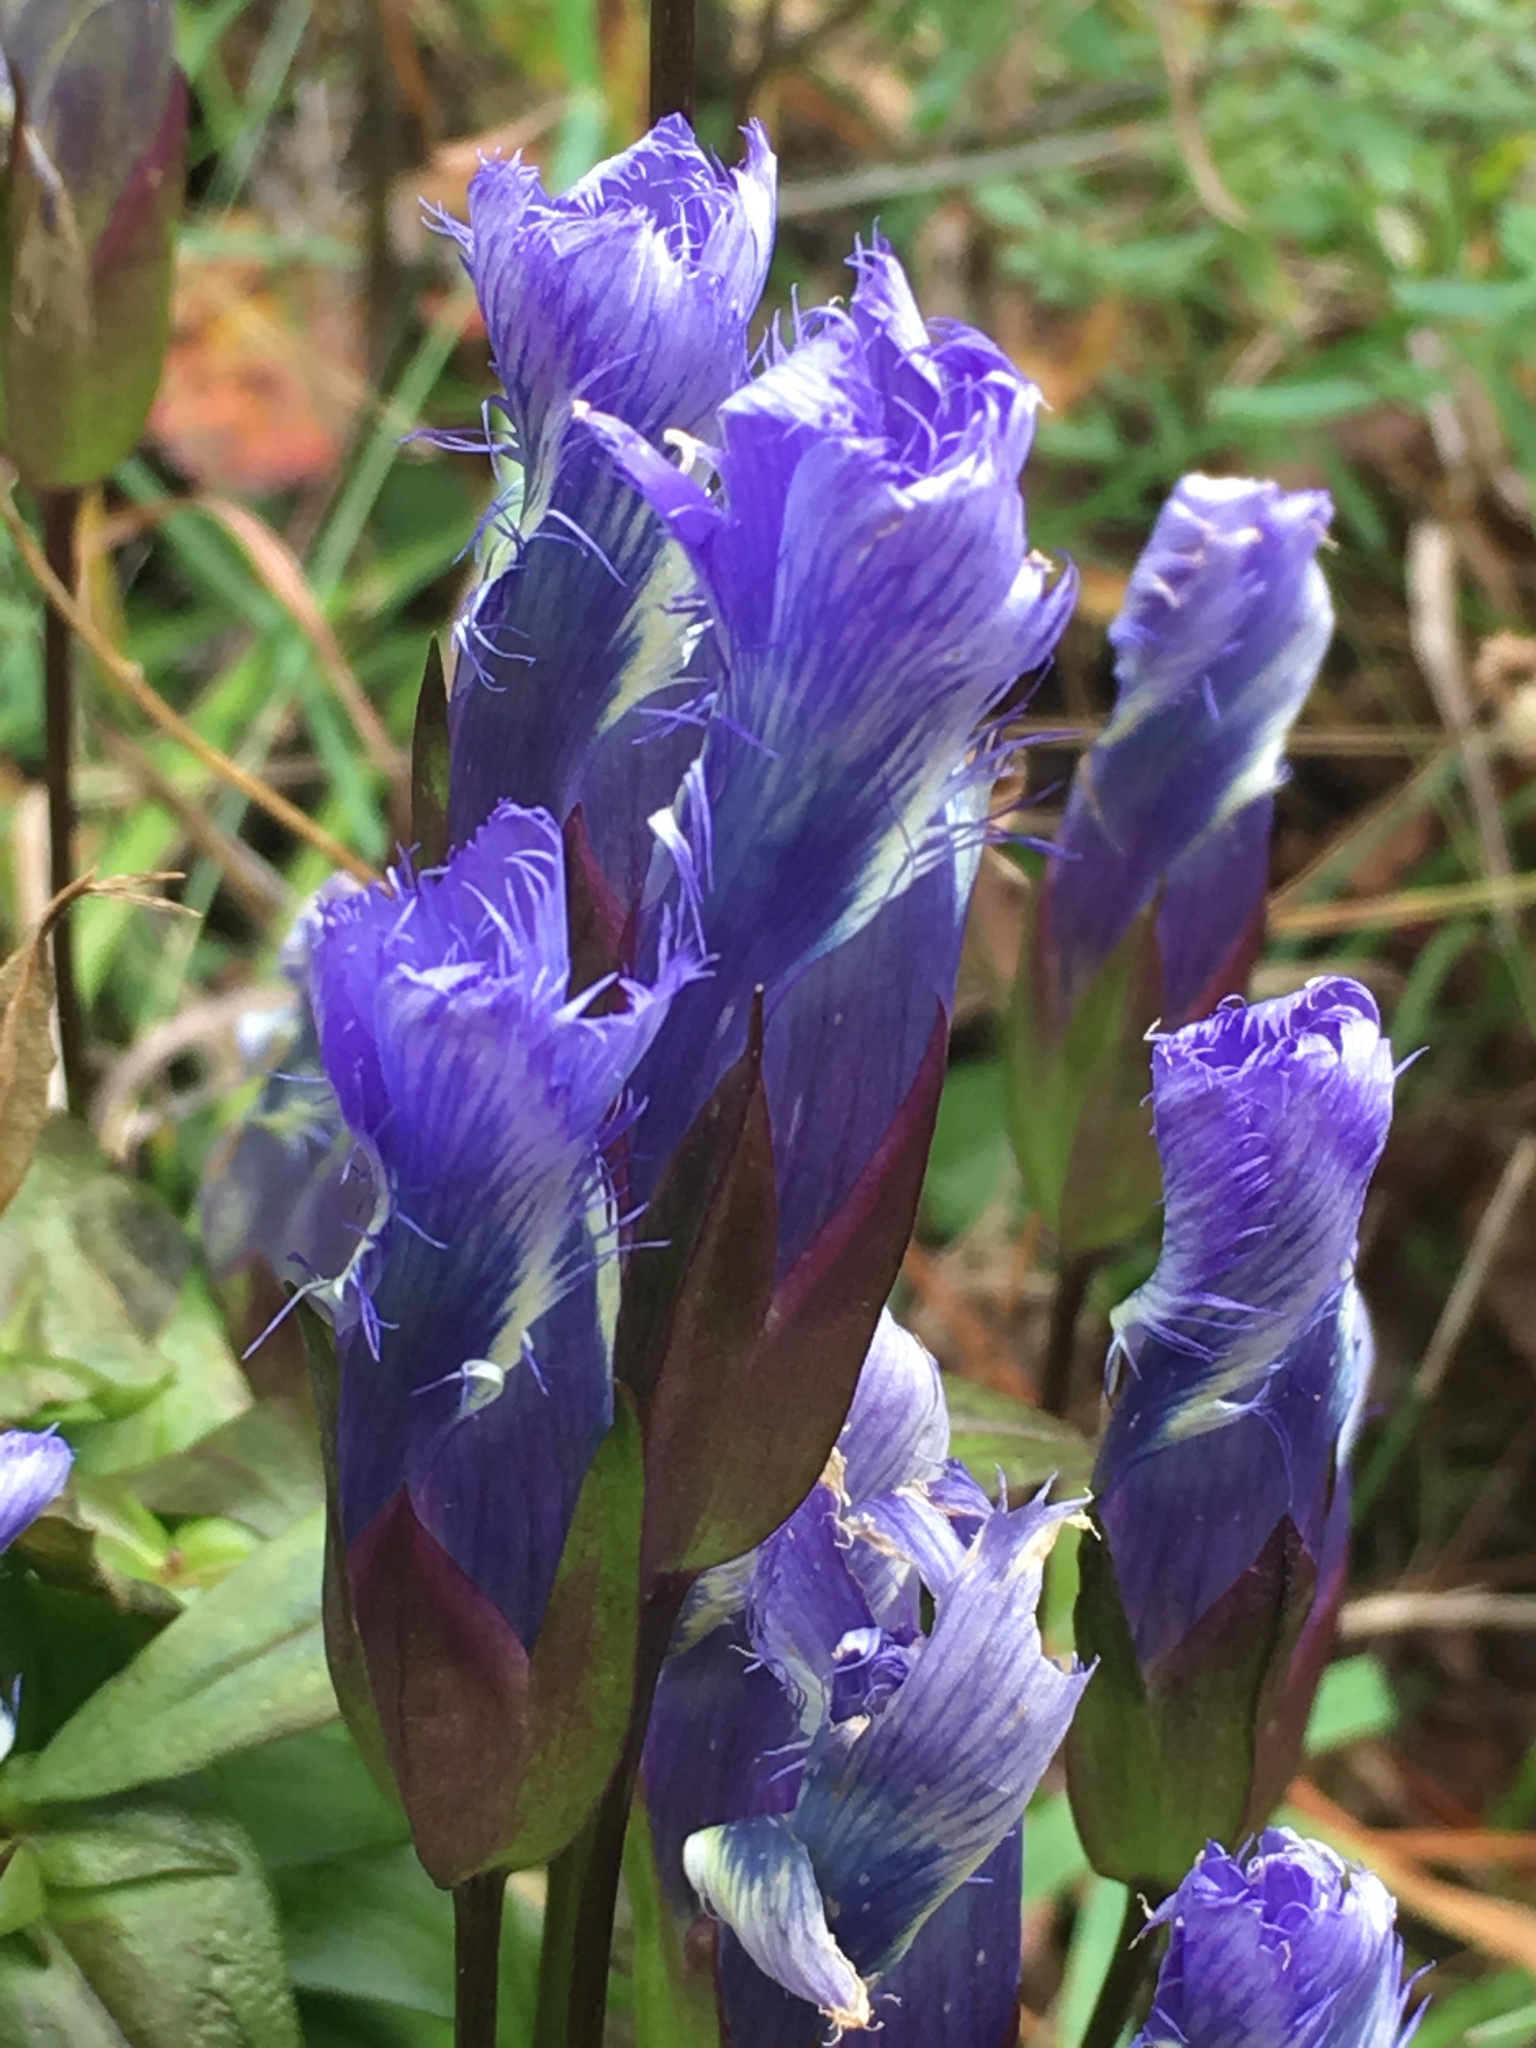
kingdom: Plantae
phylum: Tracheophyta
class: Magnoliopsida
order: Gentianales
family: Gentianaceae
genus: Gentianopsis
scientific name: Gentianopsis crinita
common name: Fringed-gentian
